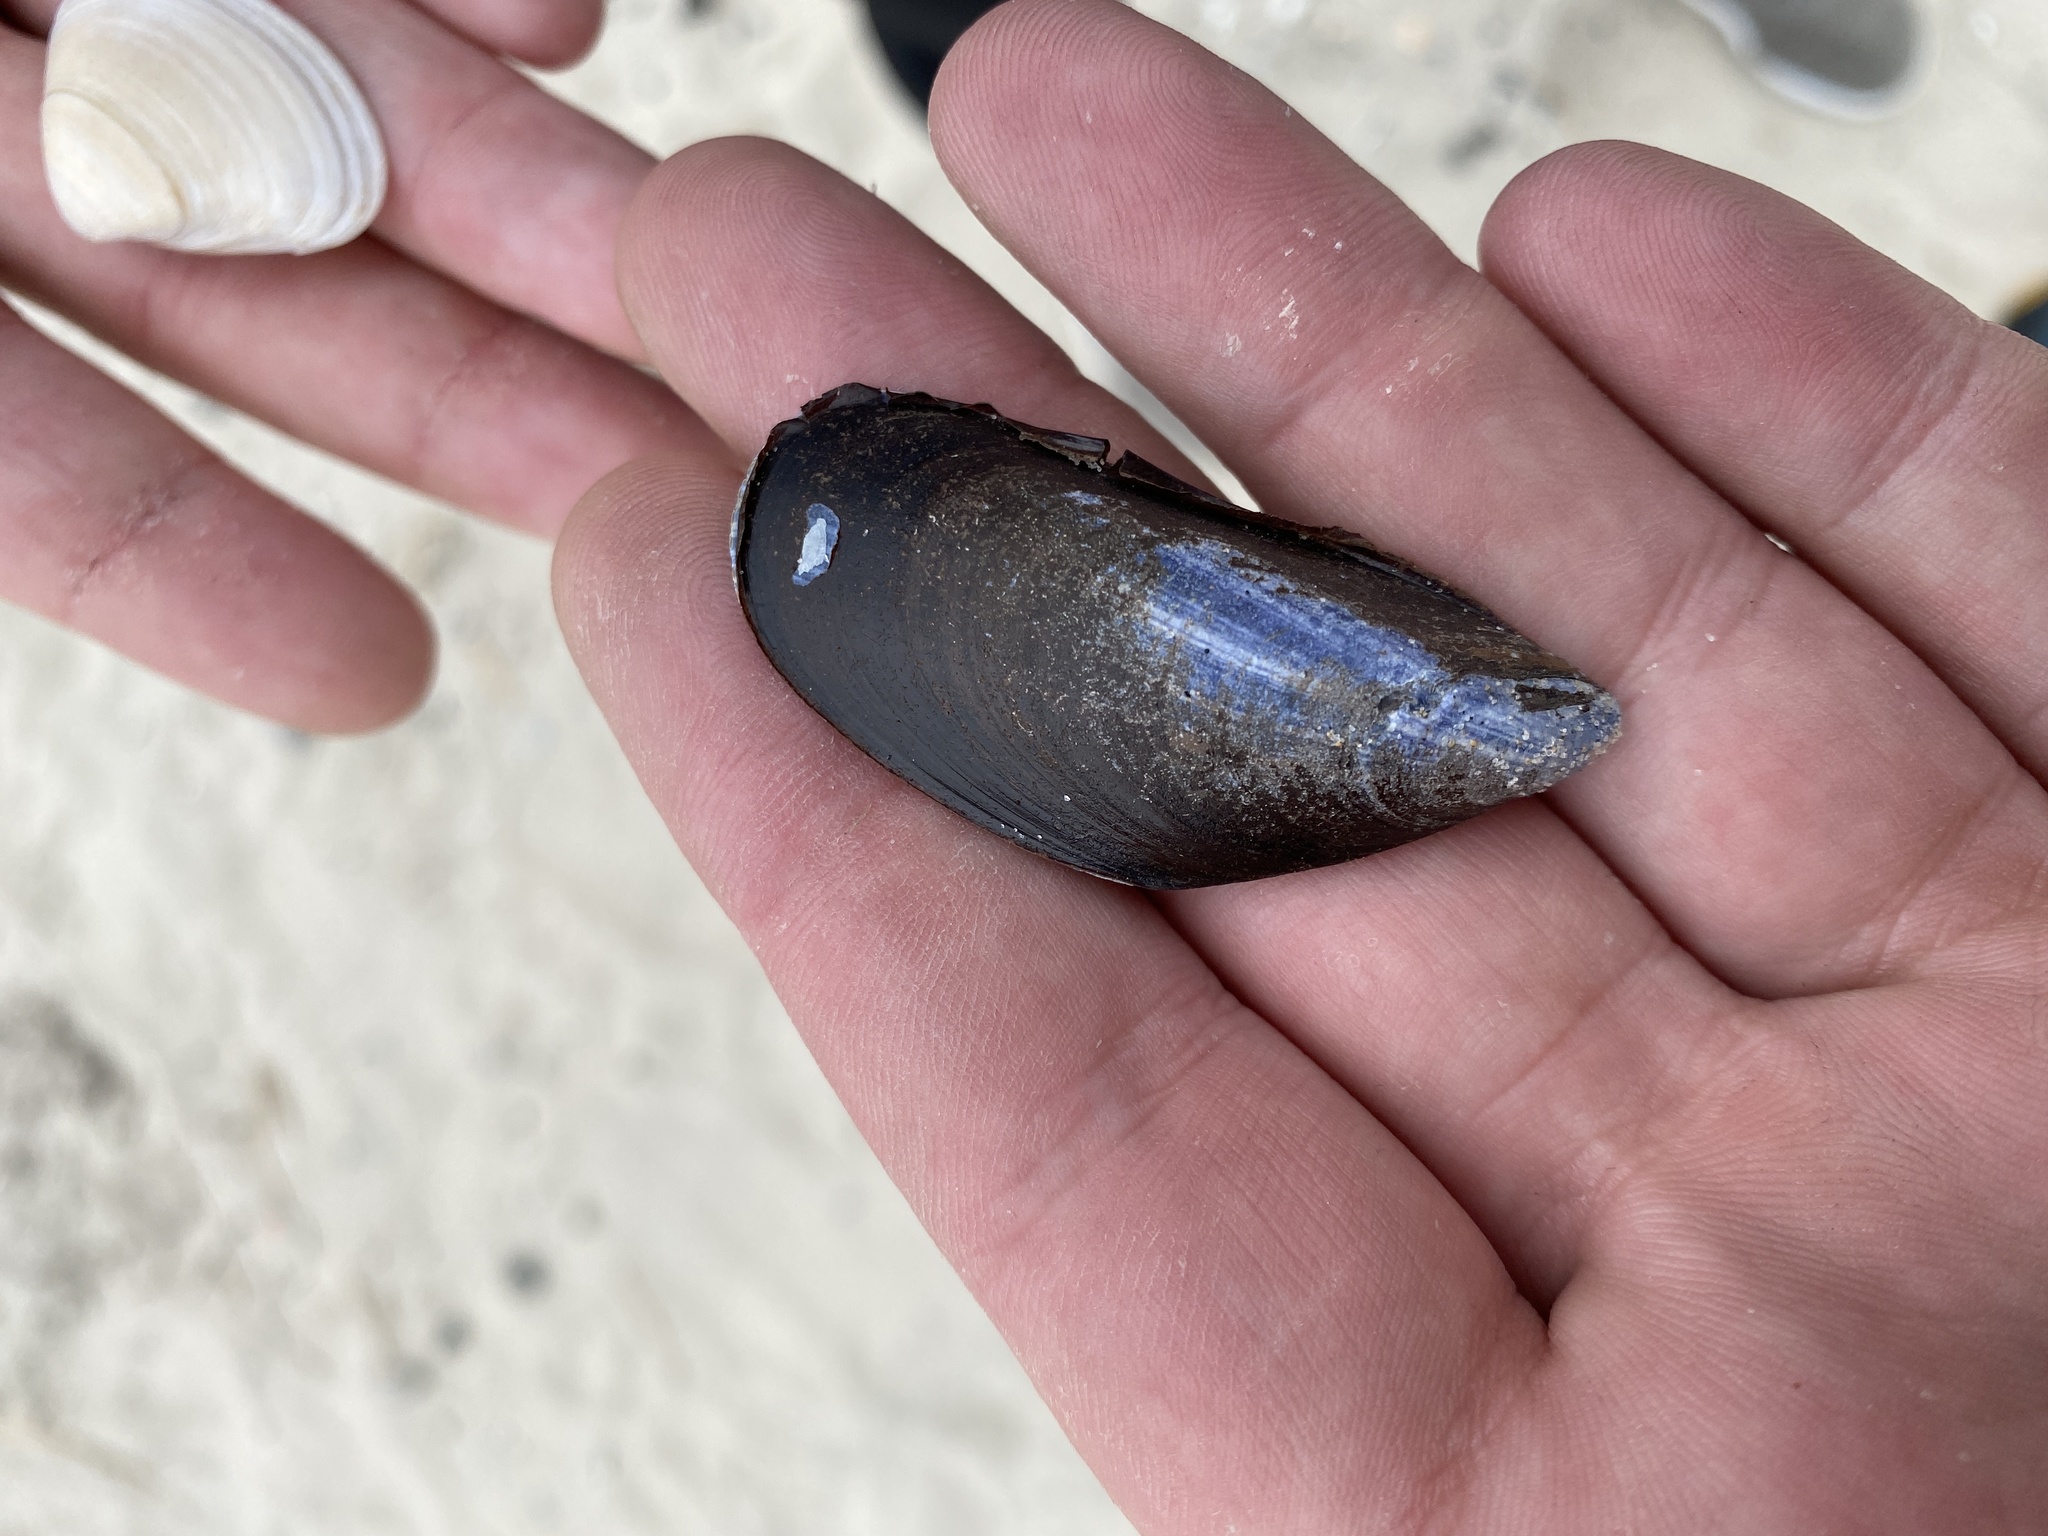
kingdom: Animalia
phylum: Mollusca
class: Bivalvia
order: Mytilida
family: Mytilidae
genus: Mytilus
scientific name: Mytilus edulis
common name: Blue mussel
